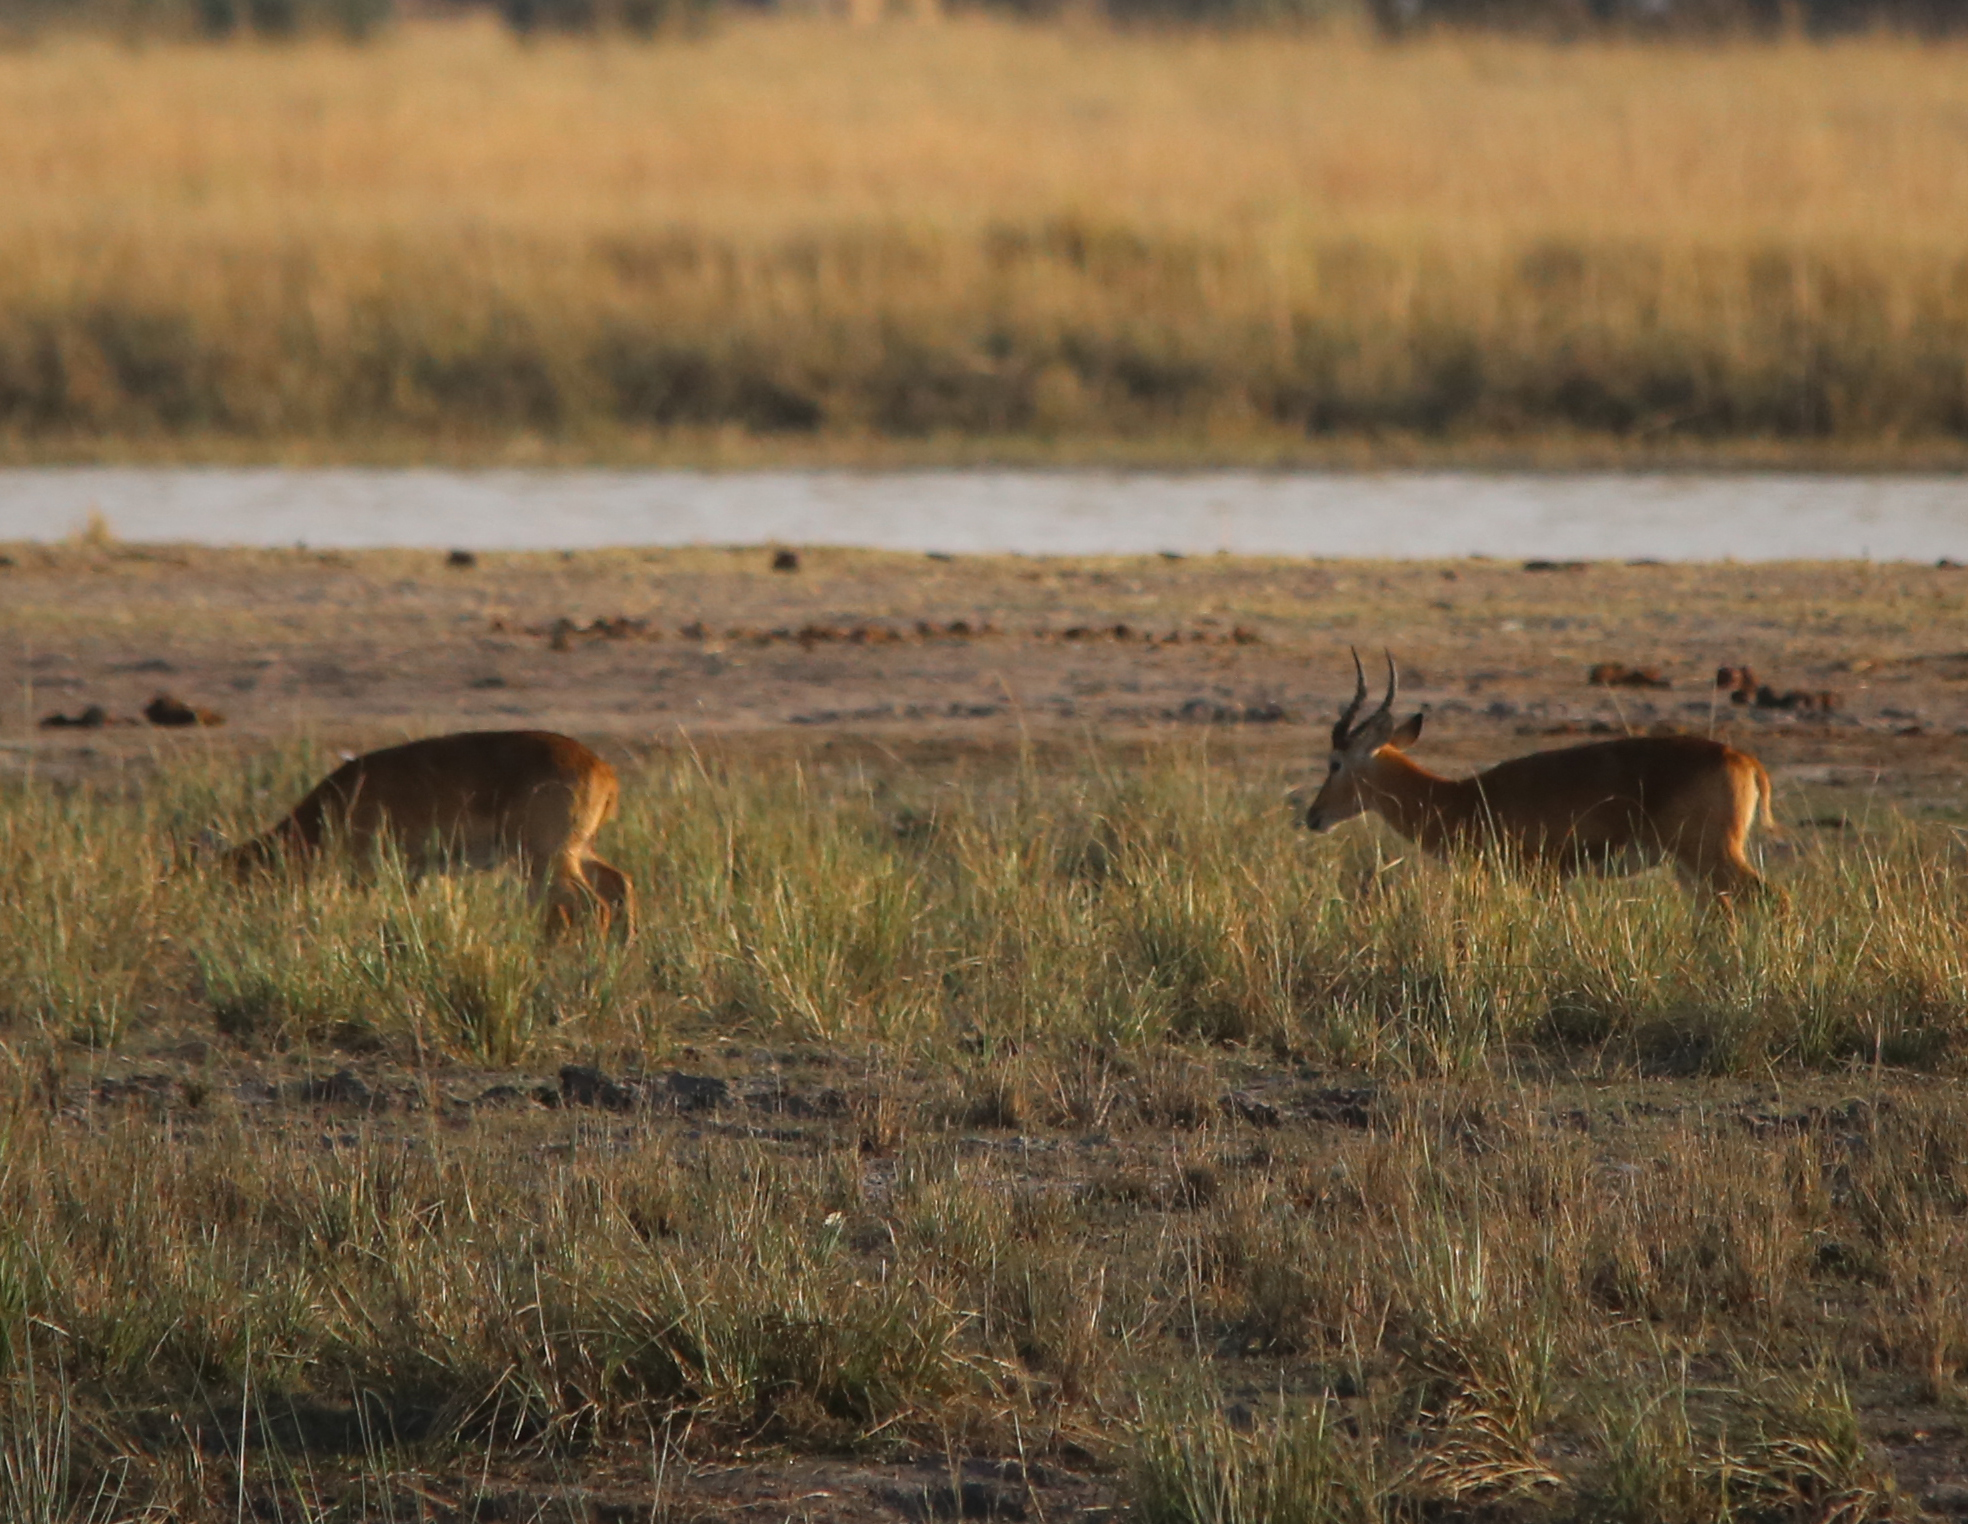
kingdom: Animalia
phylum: Chordata
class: Mammalia
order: Artiodactyla
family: Bovidae
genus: Kobus
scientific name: Kobus vardonii
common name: Puku
